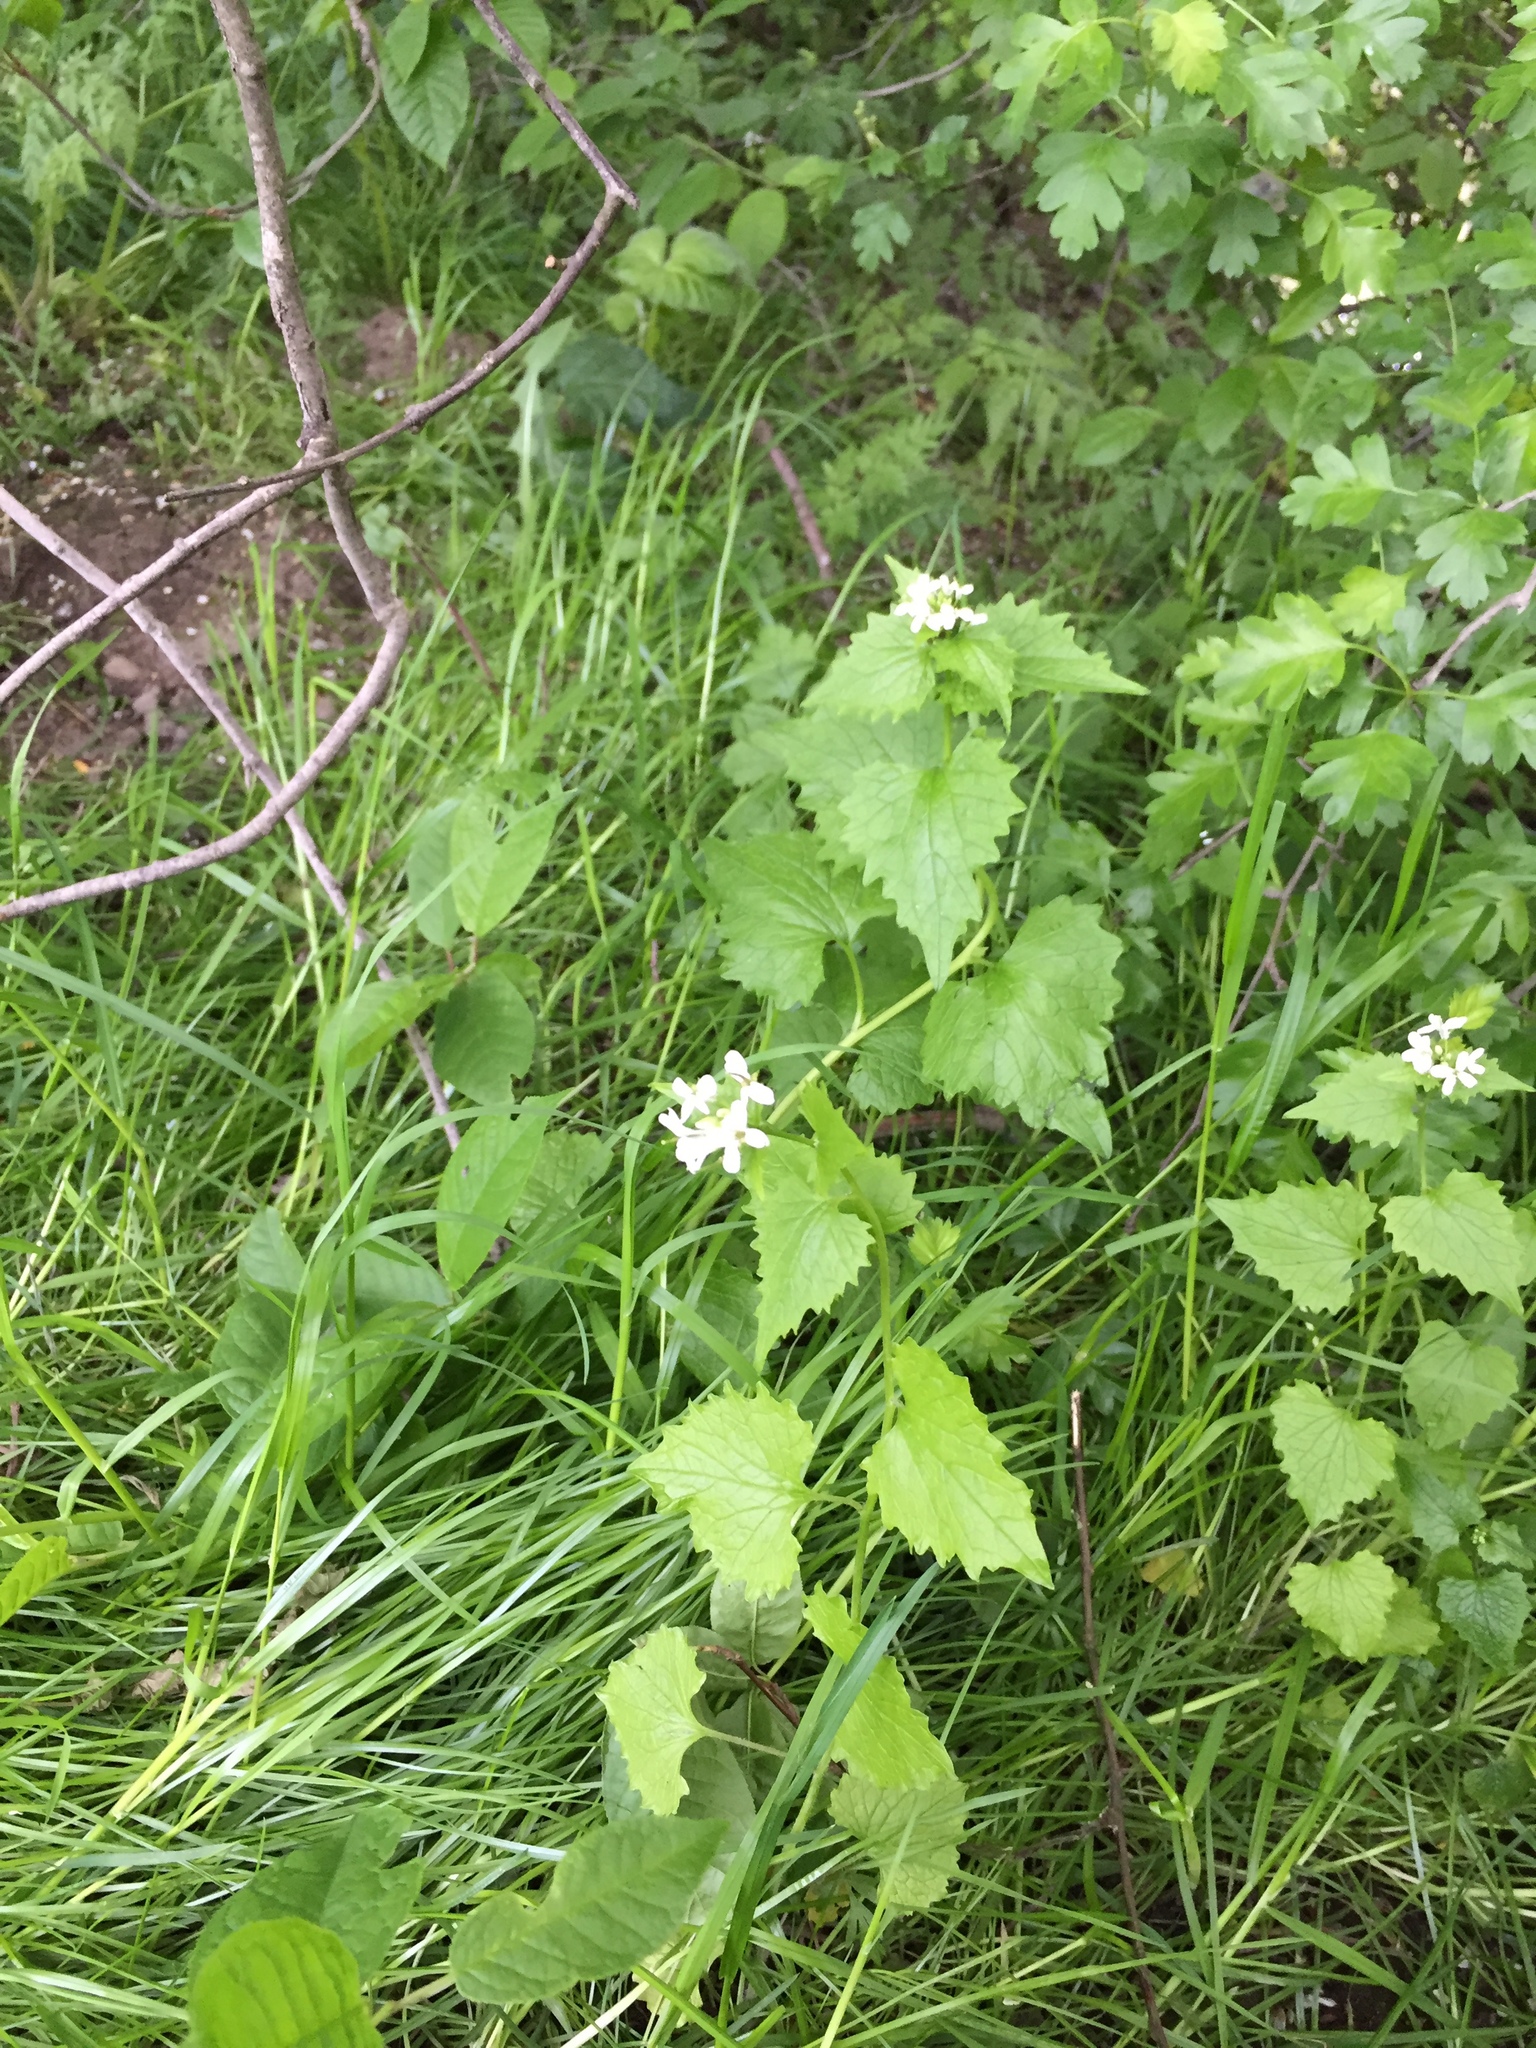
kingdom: Plantae
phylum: Tracheophyta
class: Magnoliopsida
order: Brassicales
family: Brassicaceae
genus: Alliaria
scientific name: Alliaria petiolata
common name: Garlic mustard
